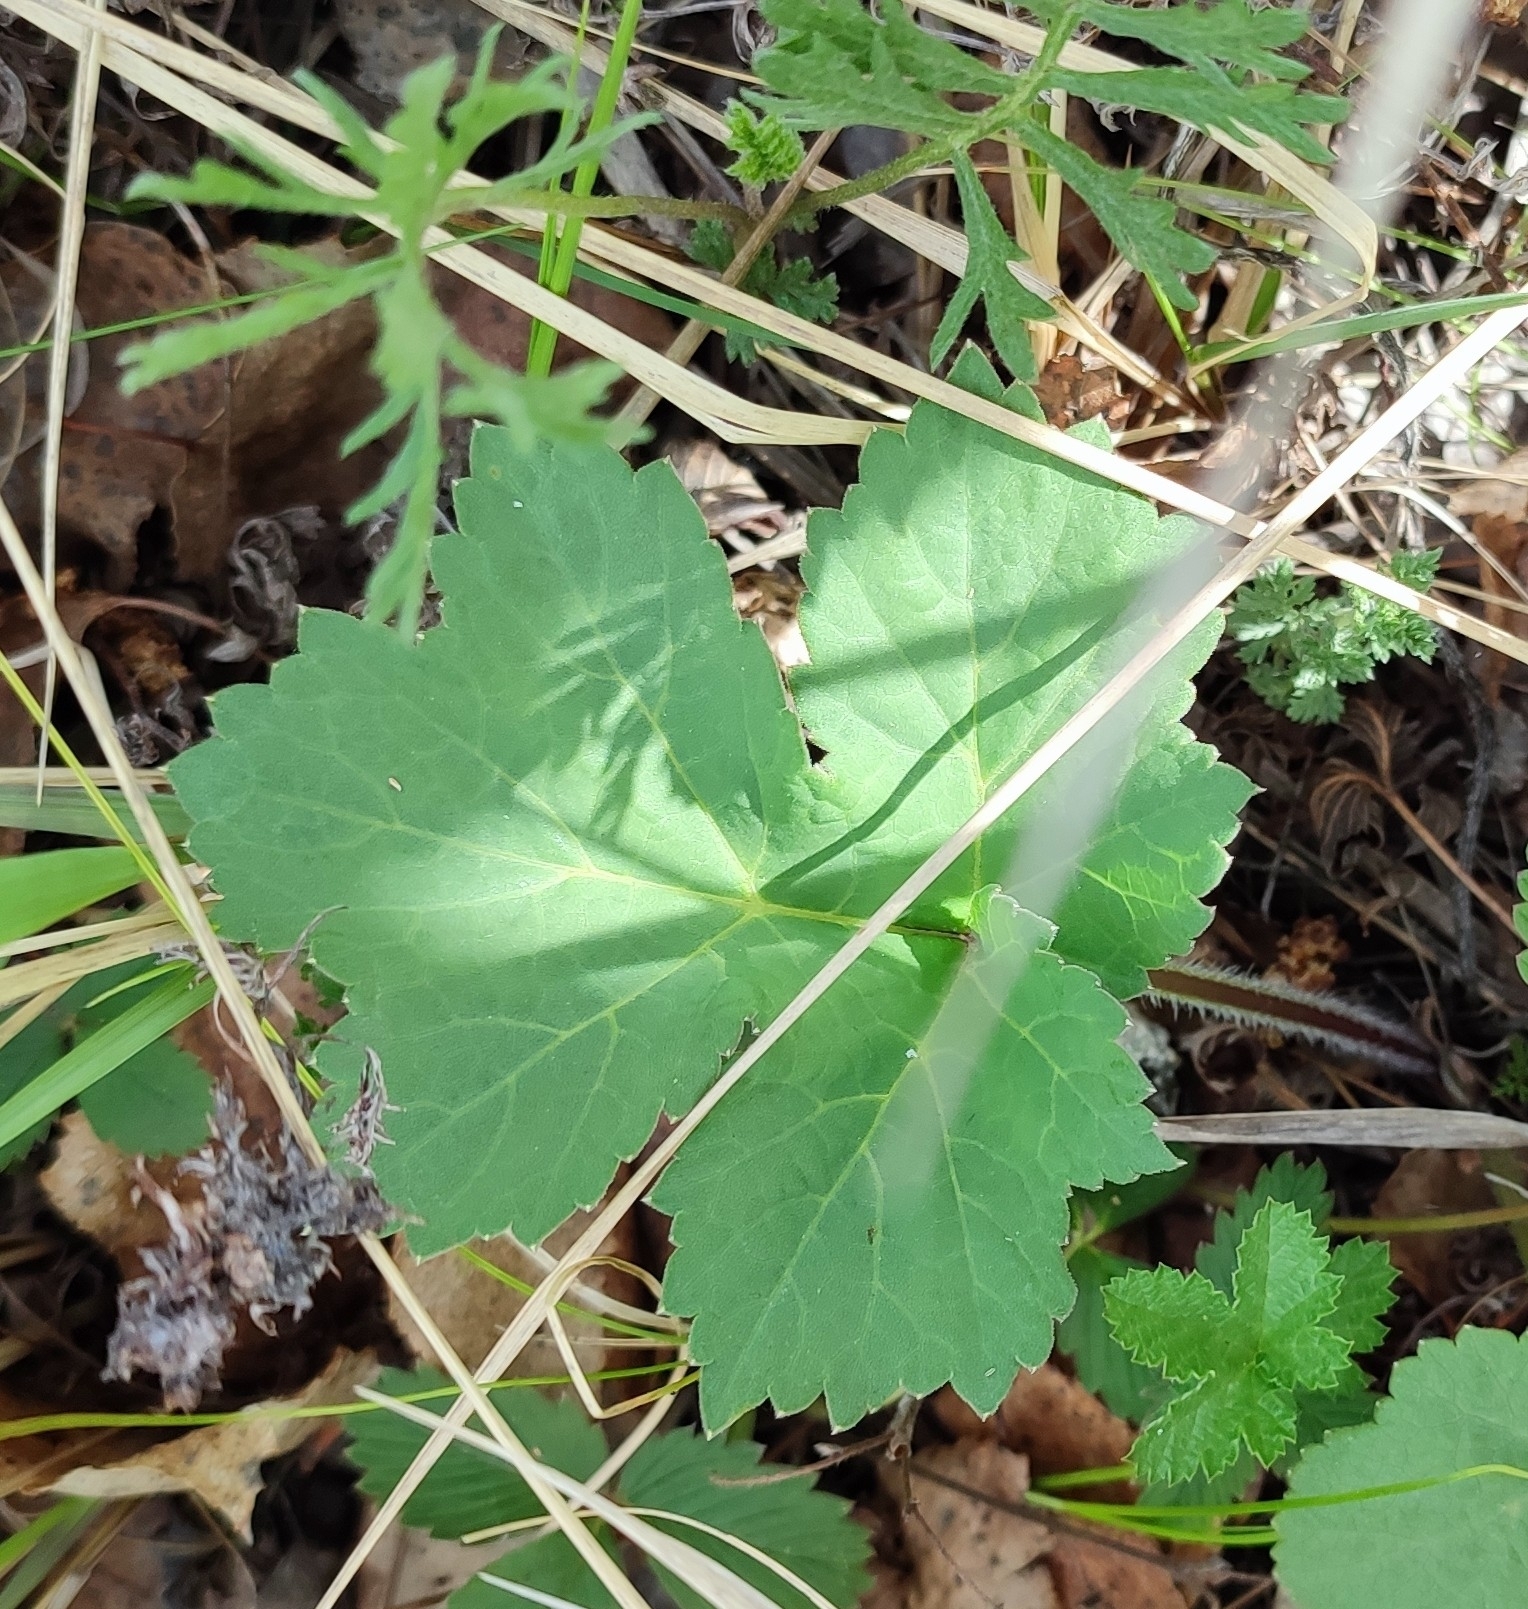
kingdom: Plantae
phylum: Tracheophyta
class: Magnoliopsida
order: Apiales
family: Apiaceae
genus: Heracleum
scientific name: Heracleum sphondylium
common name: Hogweed
